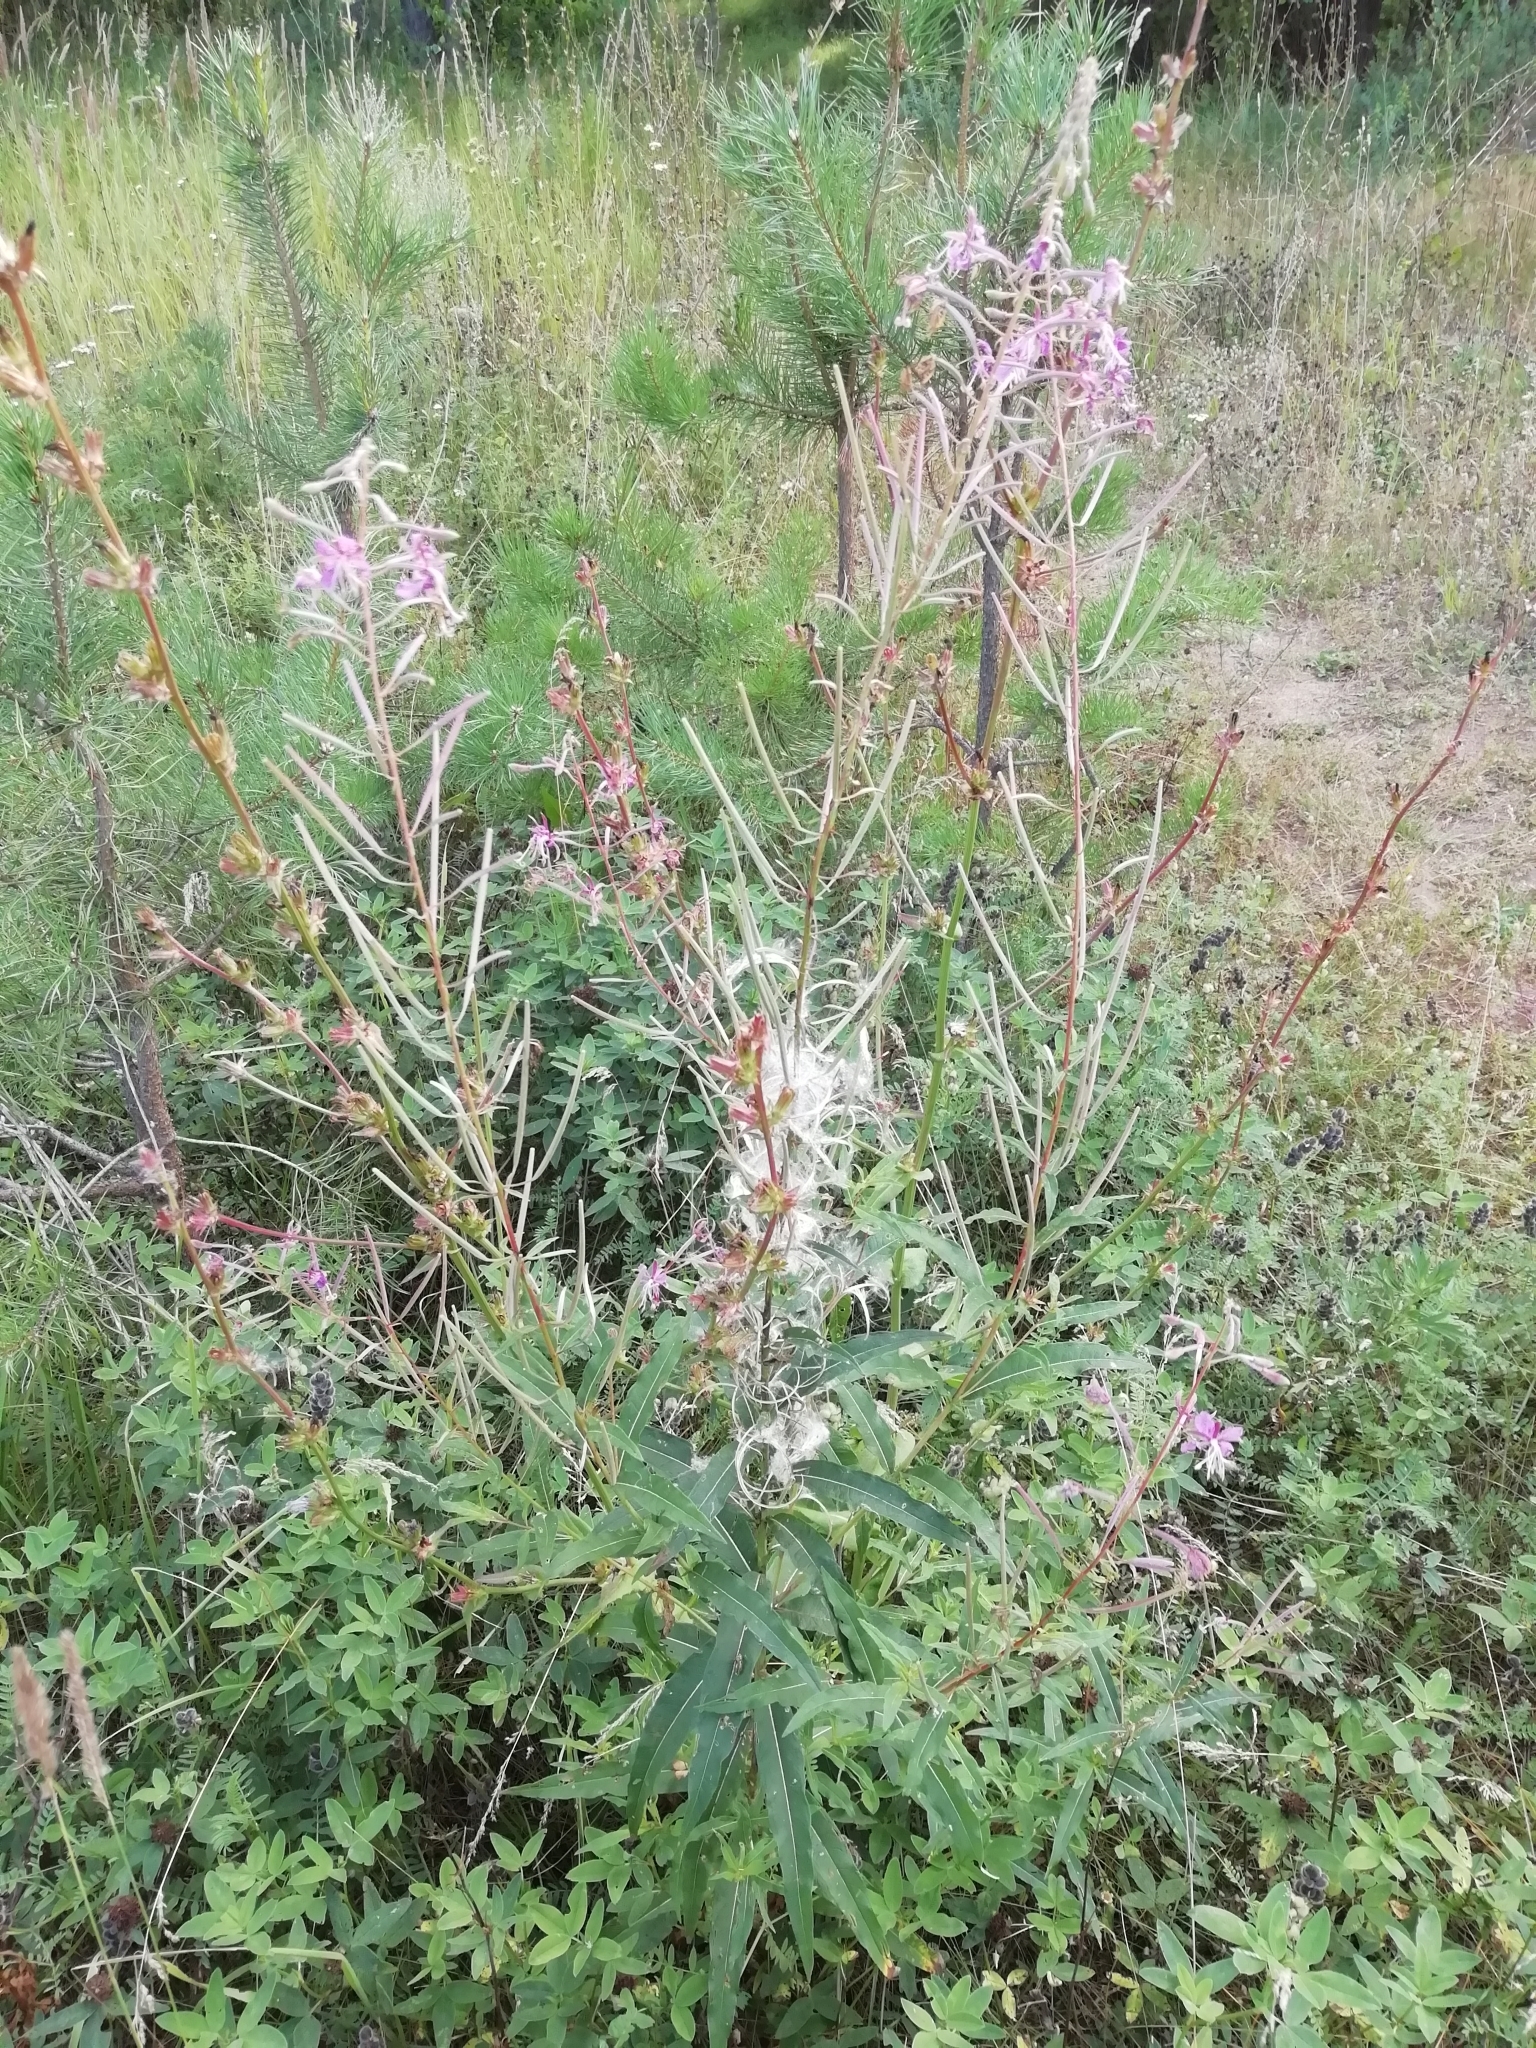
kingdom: Plantae
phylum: Tracheophyta
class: Magnoliopsida
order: Myrtales
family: Onagraceae
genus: Chamaenerion
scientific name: Chamaenerion angustifolium
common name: Fireweed
